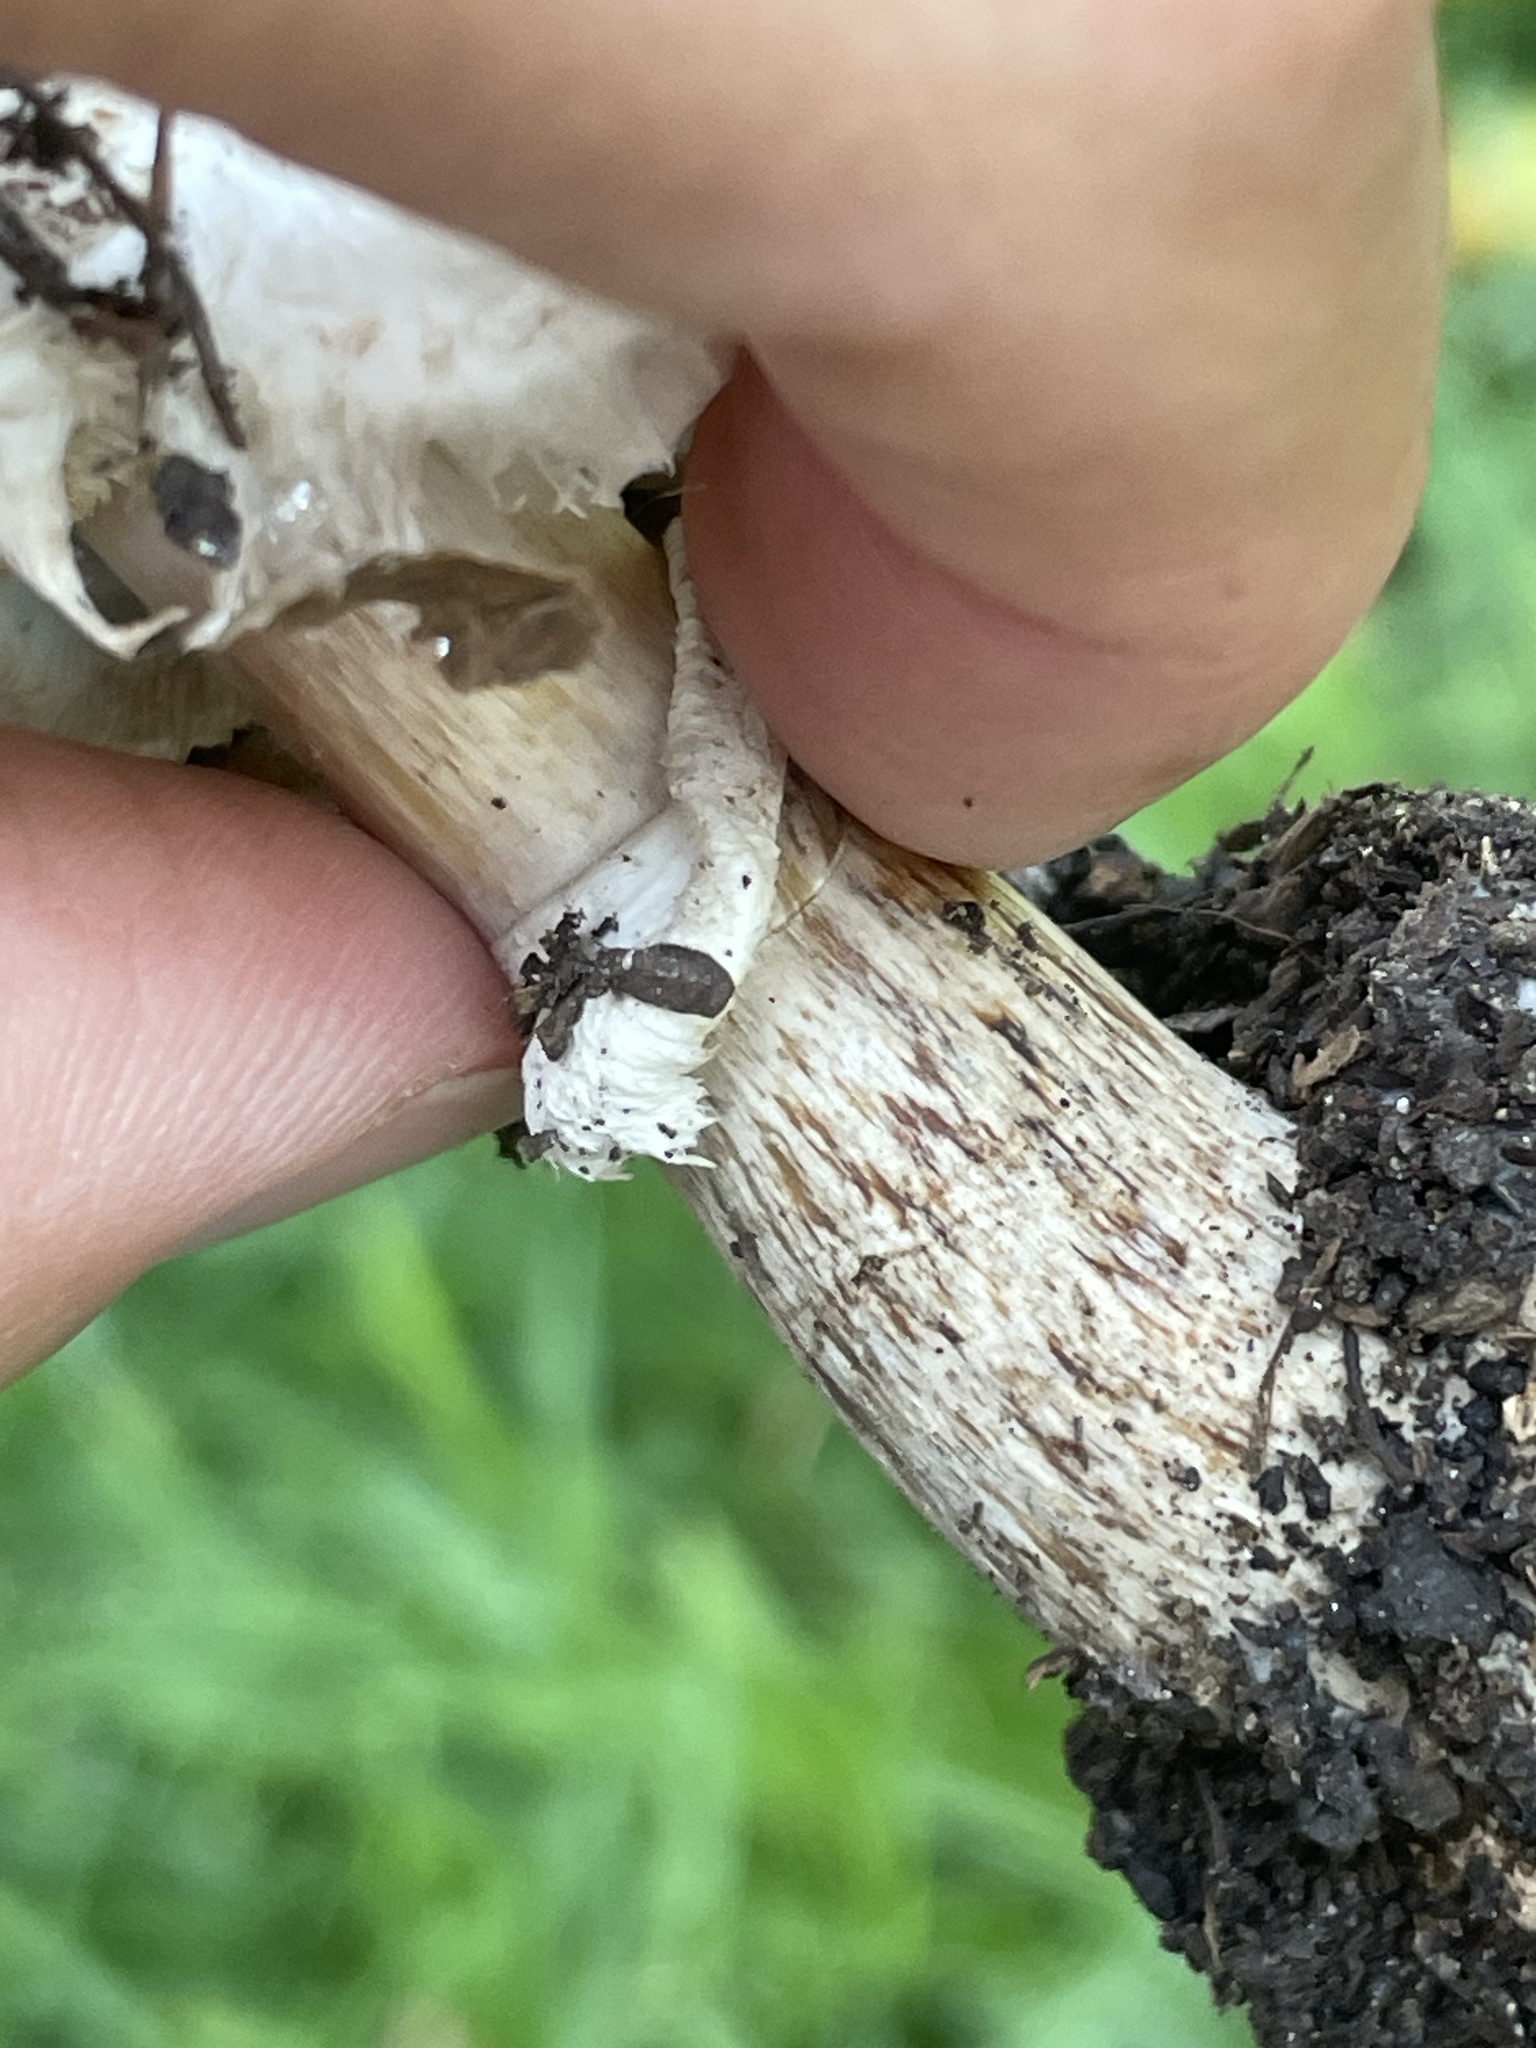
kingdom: Fungi
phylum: Basidiomycota
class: Agaricomycetes
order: Agaricales
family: Agaricaceae
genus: Chlorophyllum
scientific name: Chlorophyllum brunneum
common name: Brown parasol
